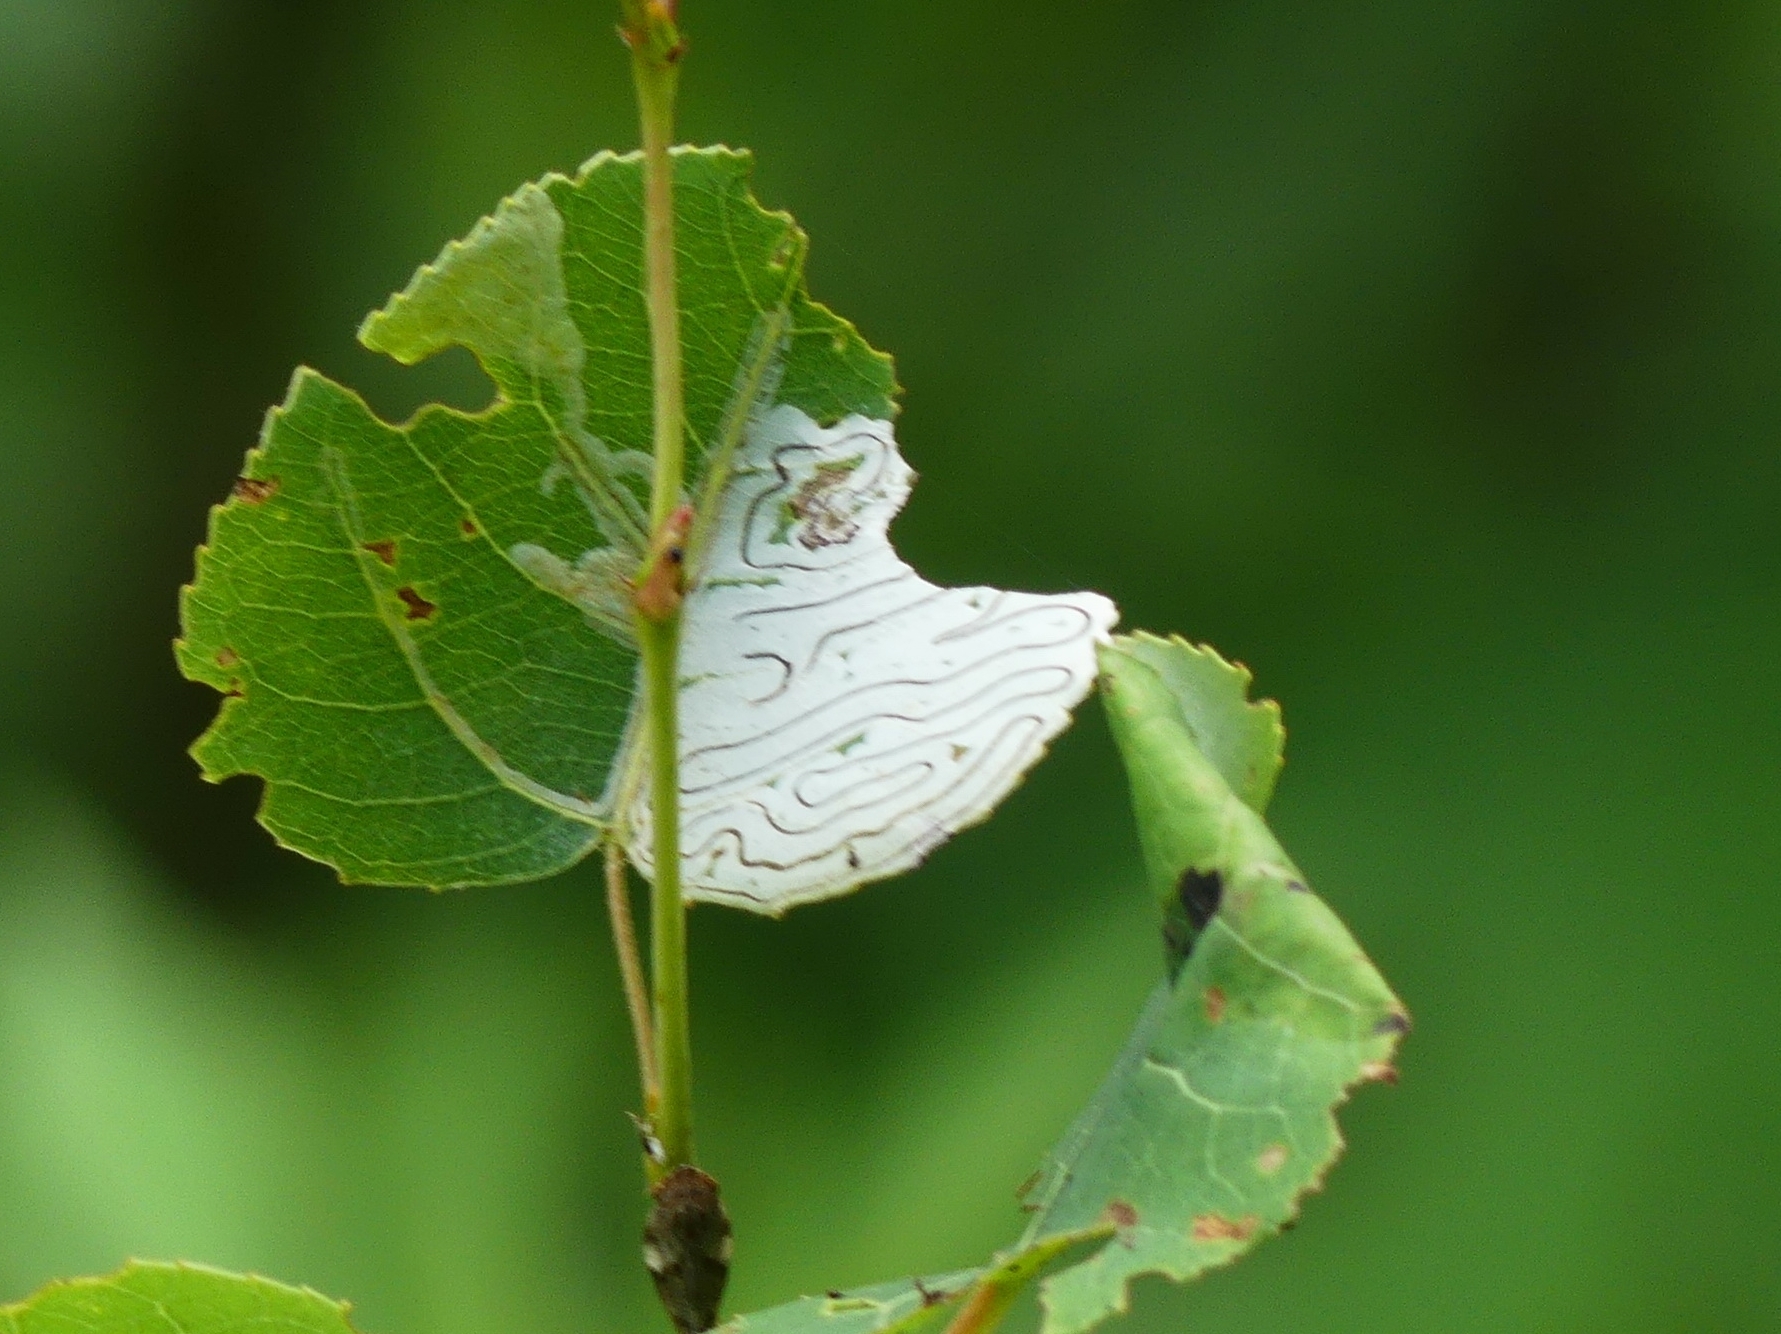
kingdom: Animalia
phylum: Arthropoda
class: Insecta
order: Lepidoptera
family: Gracillariidae
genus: Phyllocnistis
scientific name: Phyllocnistis populiella
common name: Aspen serpentine leafminer moth
